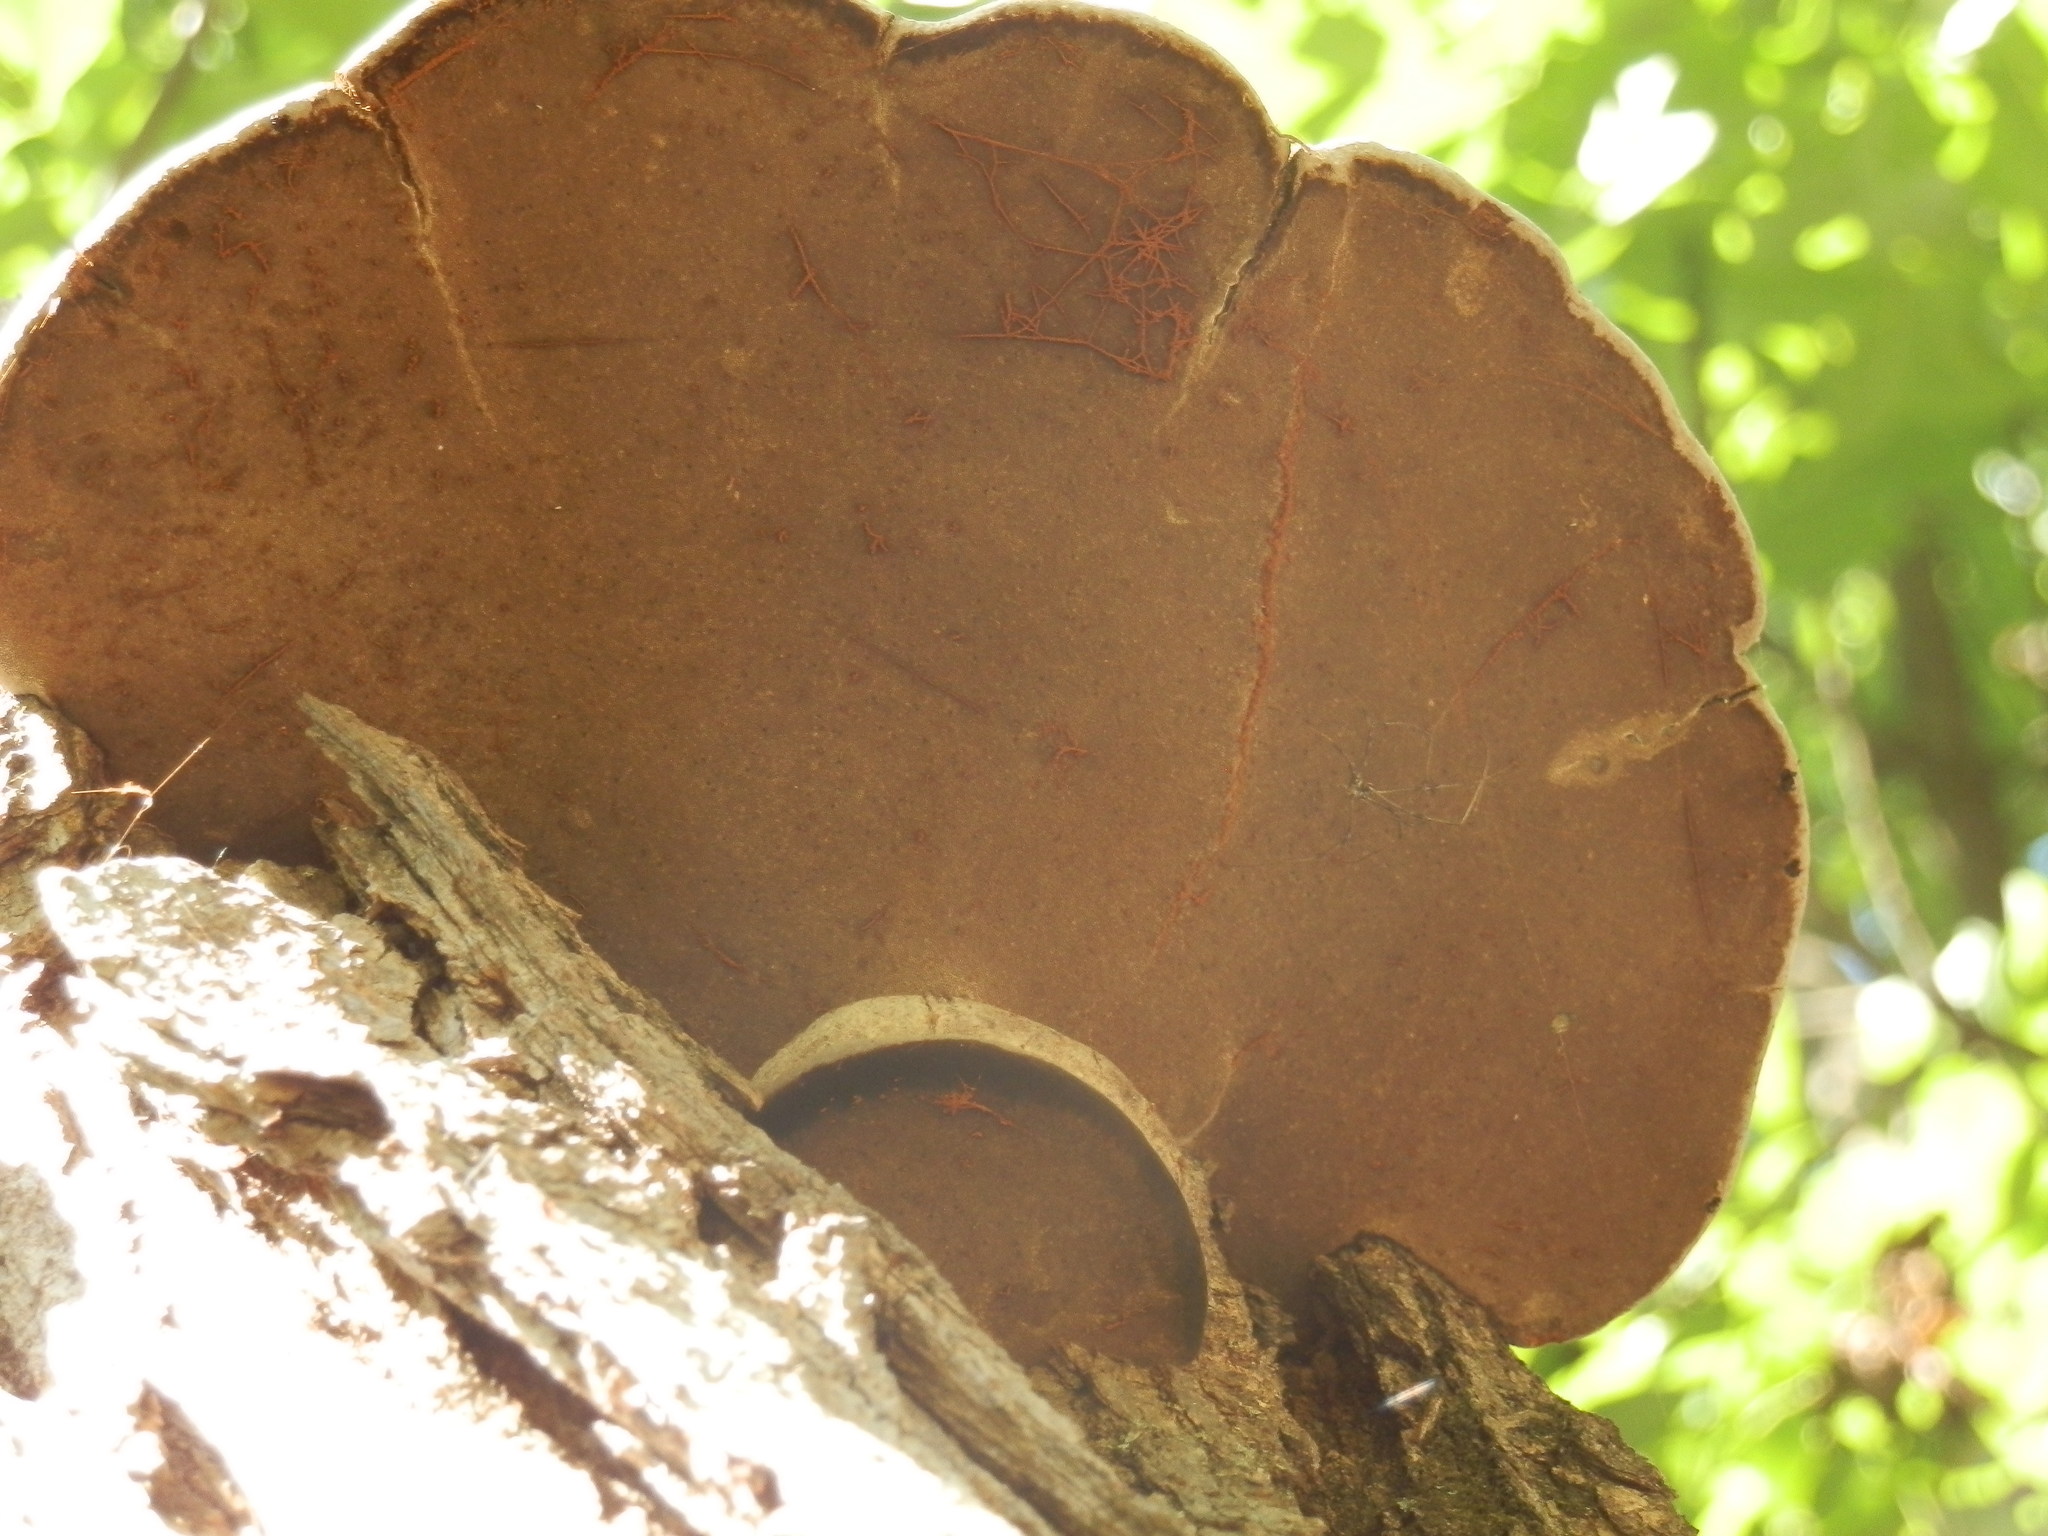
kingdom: Fungi
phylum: Basidiomycota
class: Agaricomycetes
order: Hymenochaetales
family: Hymenochaetaceae
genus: Phellinus
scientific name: Phellinus robiniae
